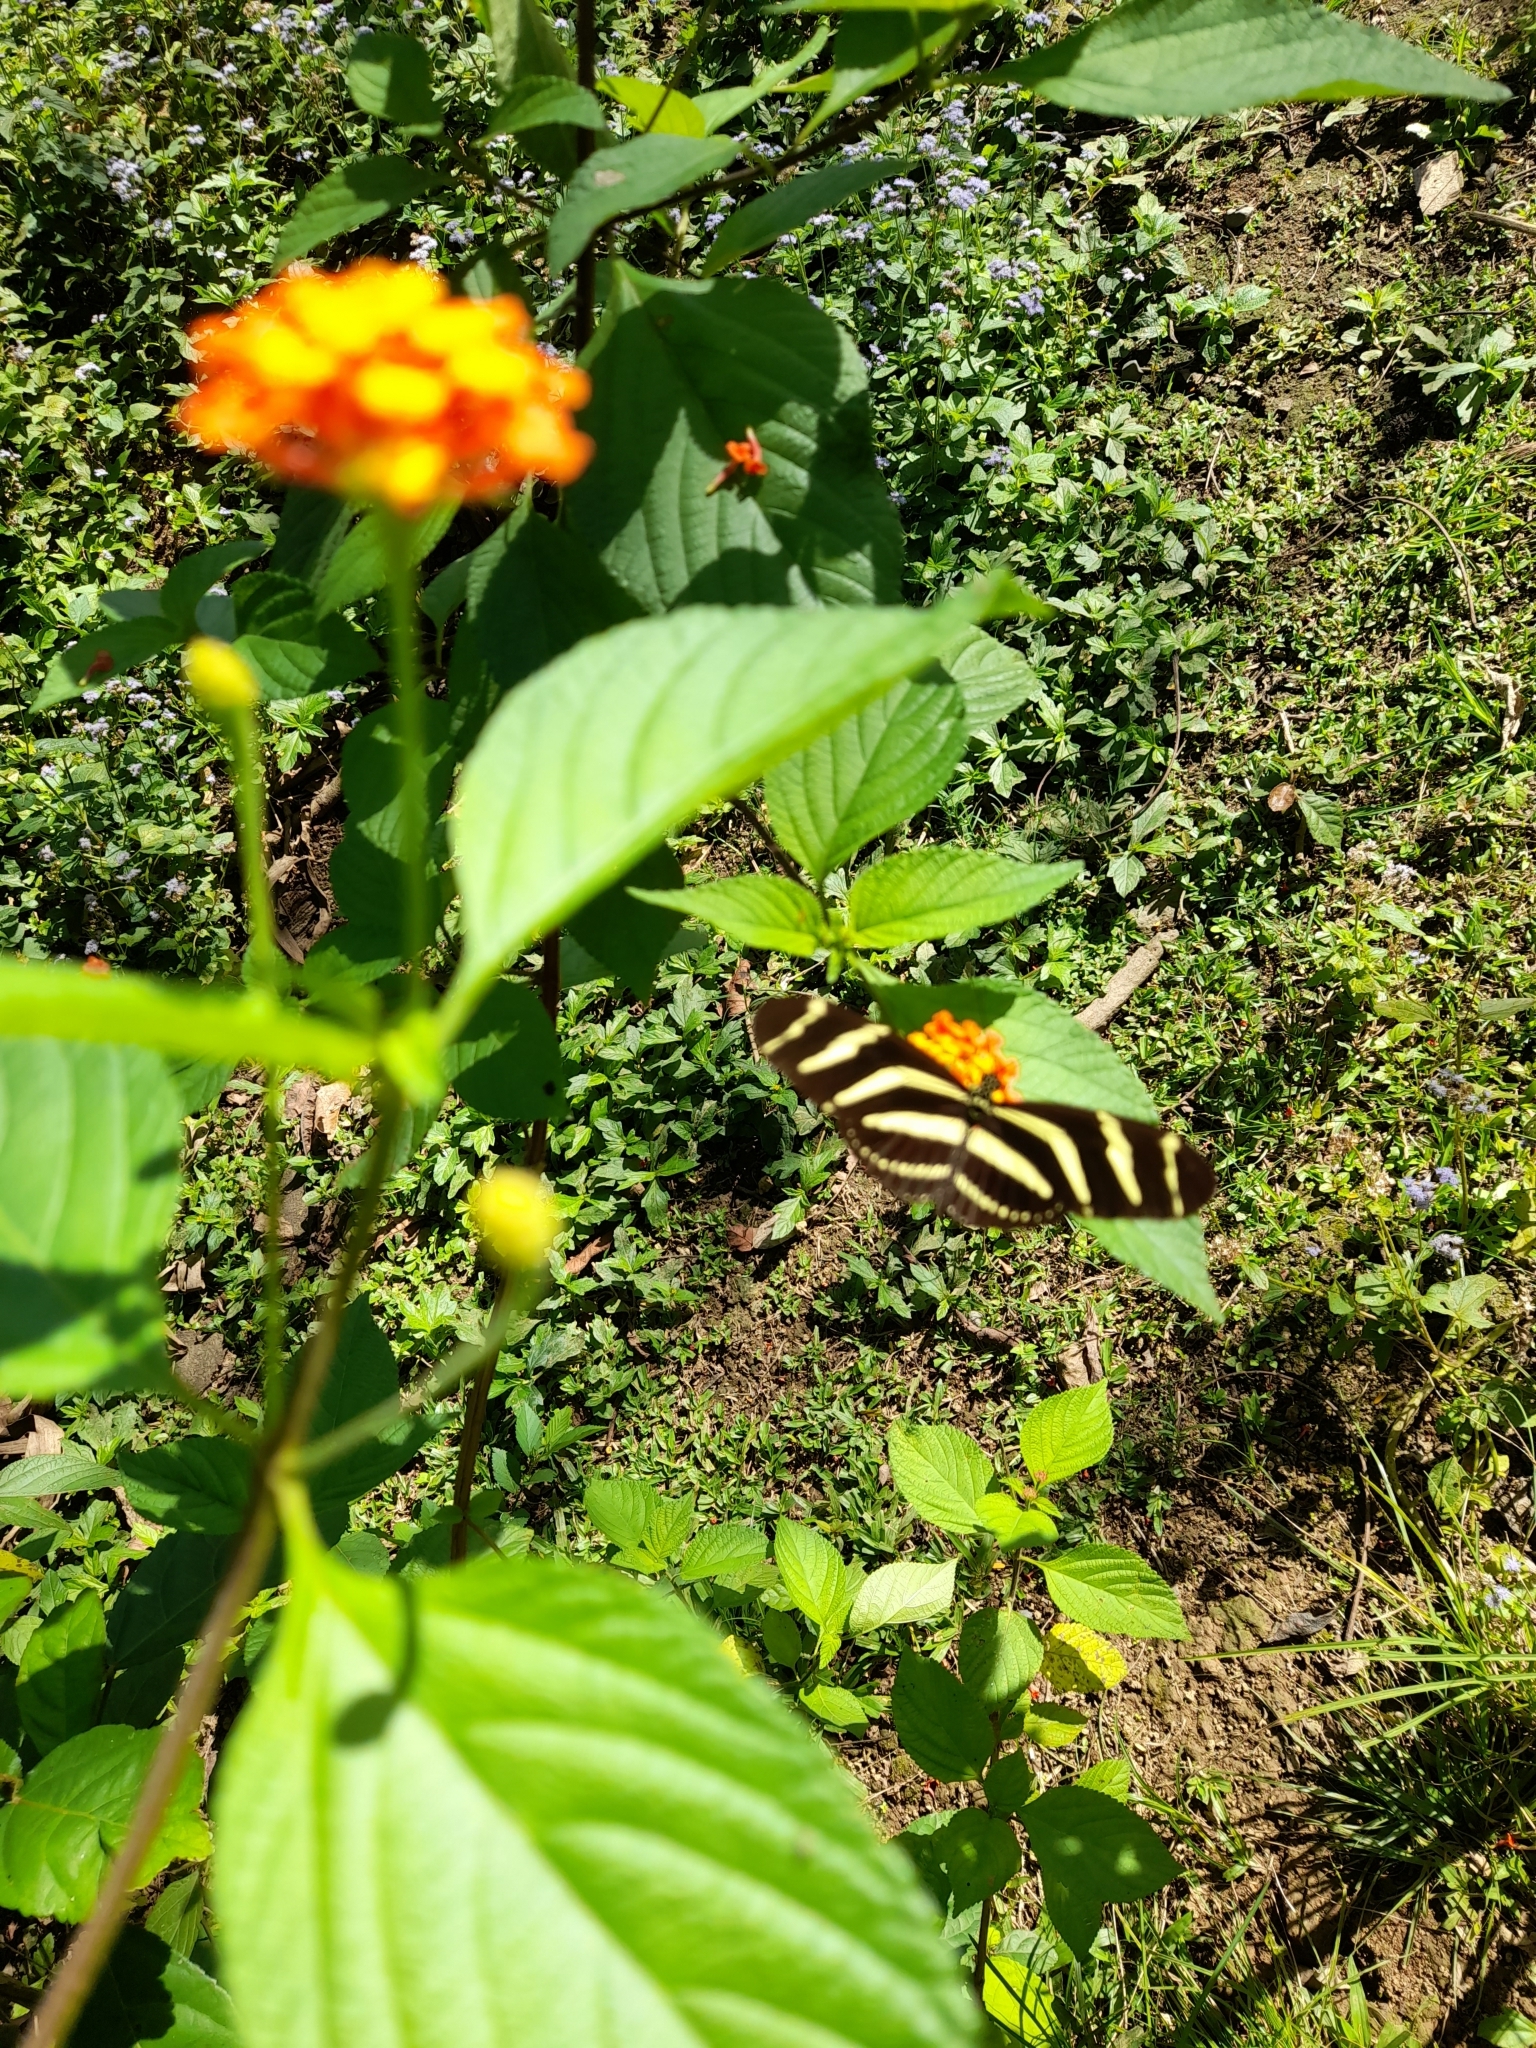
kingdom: Animalia
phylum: Arthropoda
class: Insecta
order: Lepidoptera
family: Nymphalidae
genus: Heliconius
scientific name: Heliconius charithonia
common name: Zebra long wing
